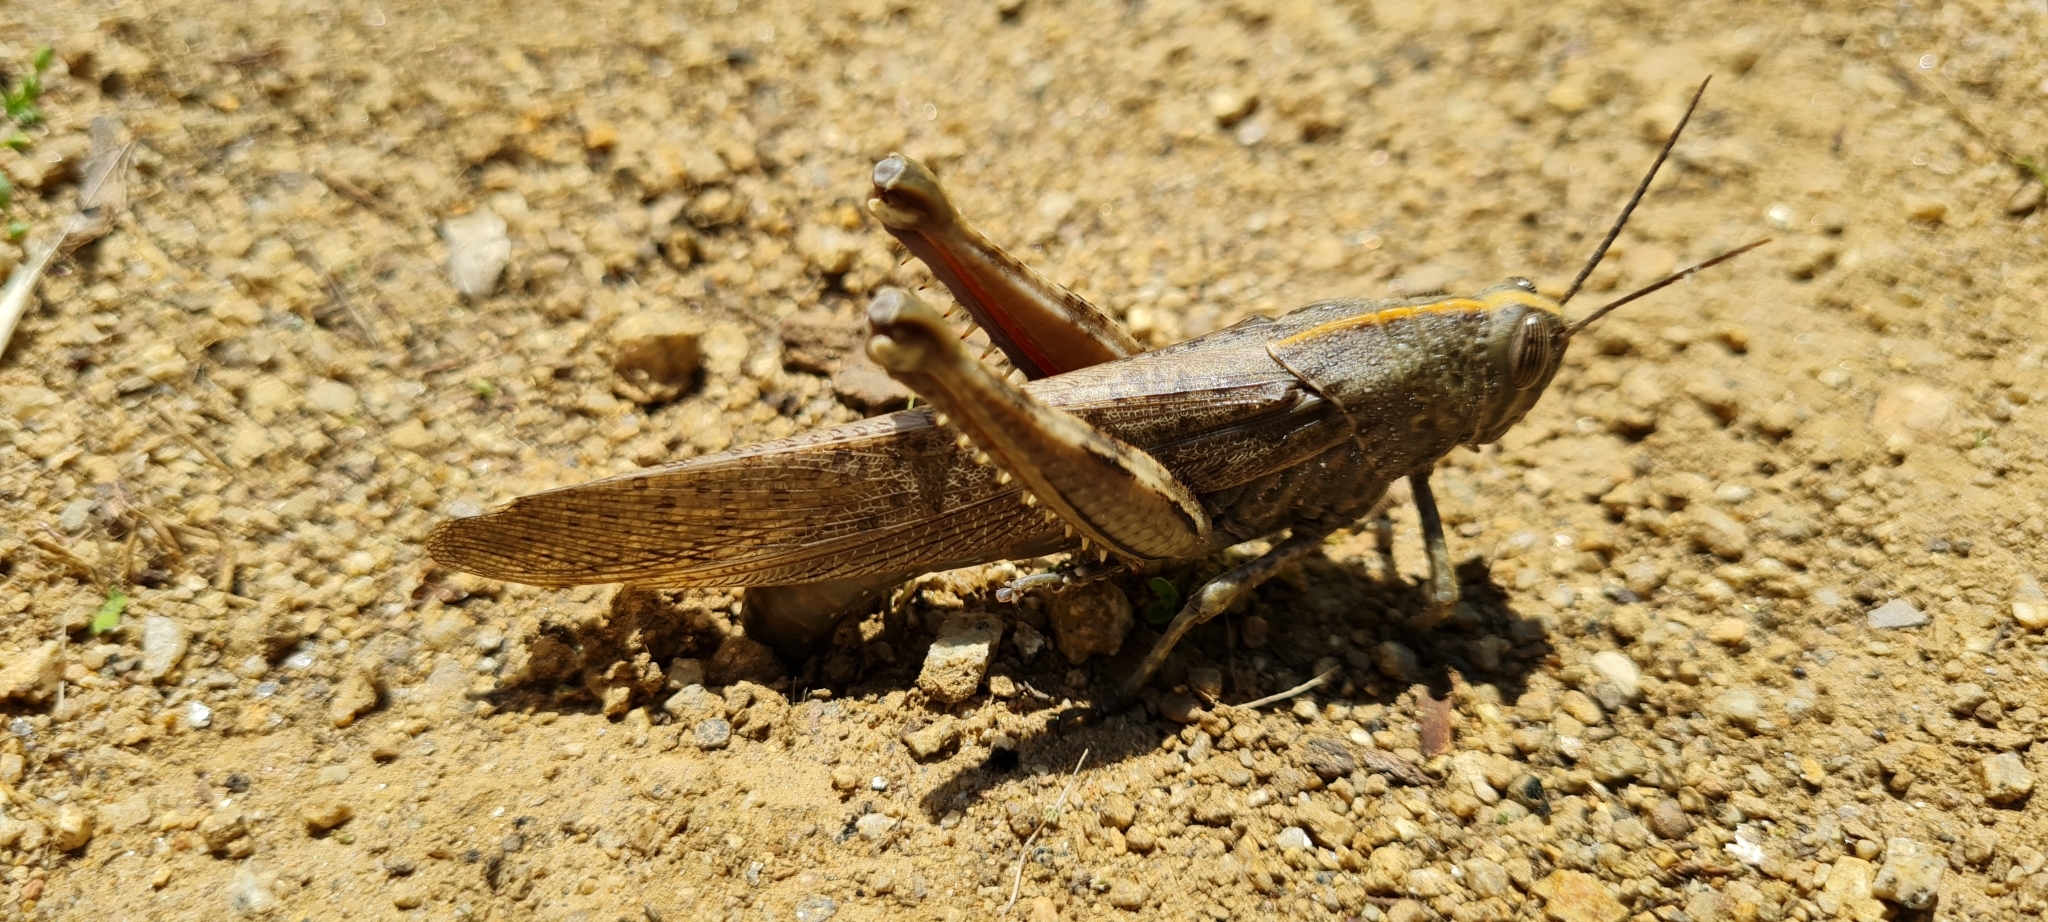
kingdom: Animalia
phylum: Arthropoda
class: Insecta
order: Orthoptera
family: Acrididae
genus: Anacridium
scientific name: Anacridium aegyptium
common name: Egyptian grasshopper
